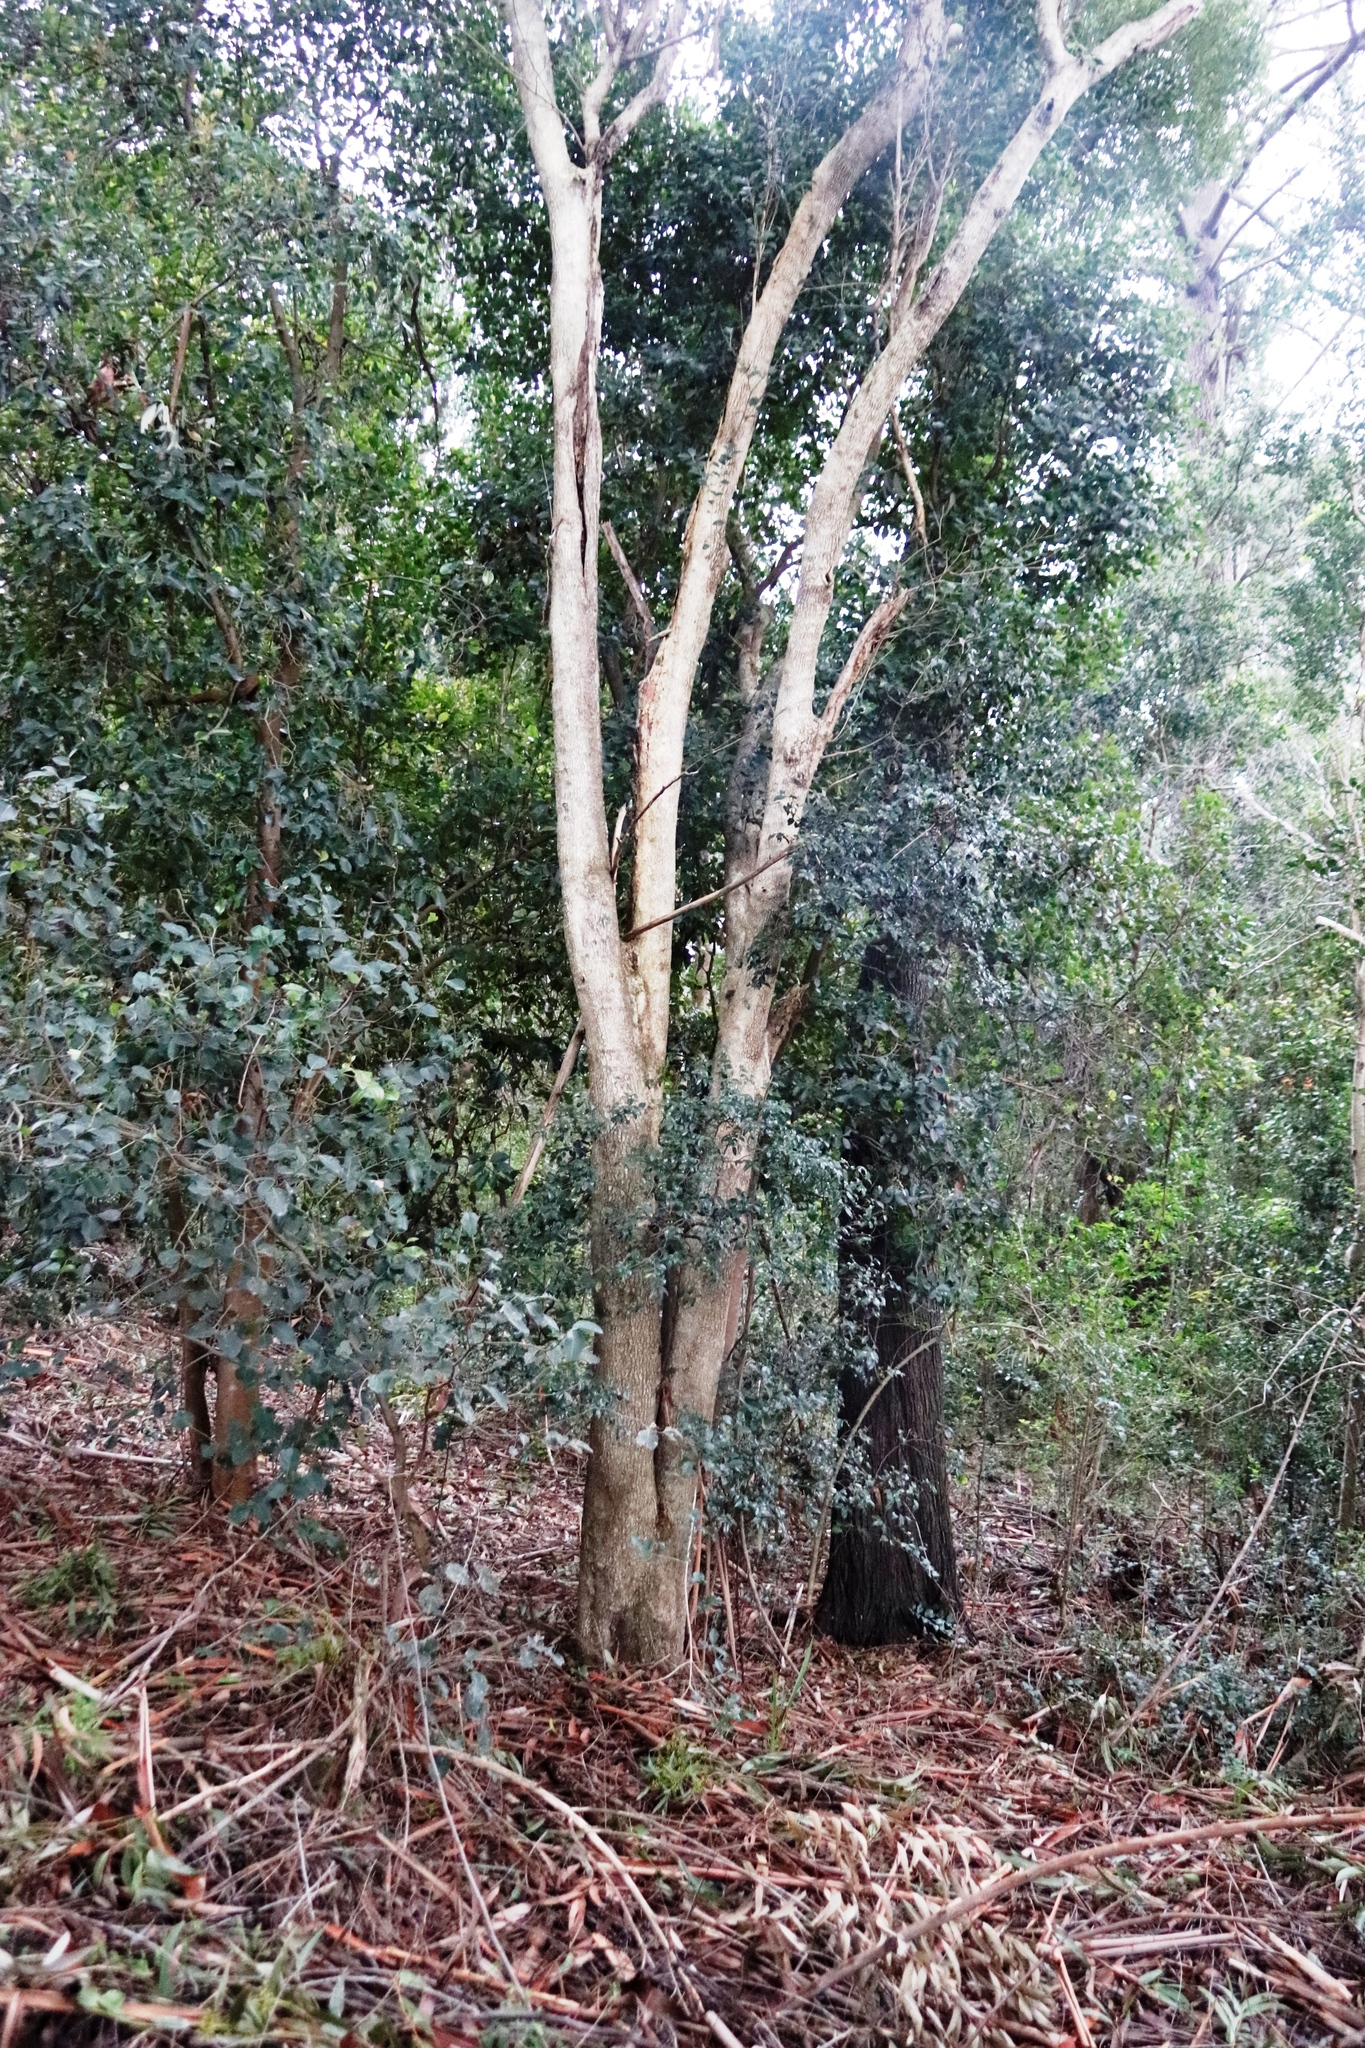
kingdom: Plantae
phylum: Tracheophyta
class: Magnoliopsida
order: Ericales
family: Ebenaceae
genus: Diospyros
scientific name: Diospyros whyteana
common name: Bladder-nut
